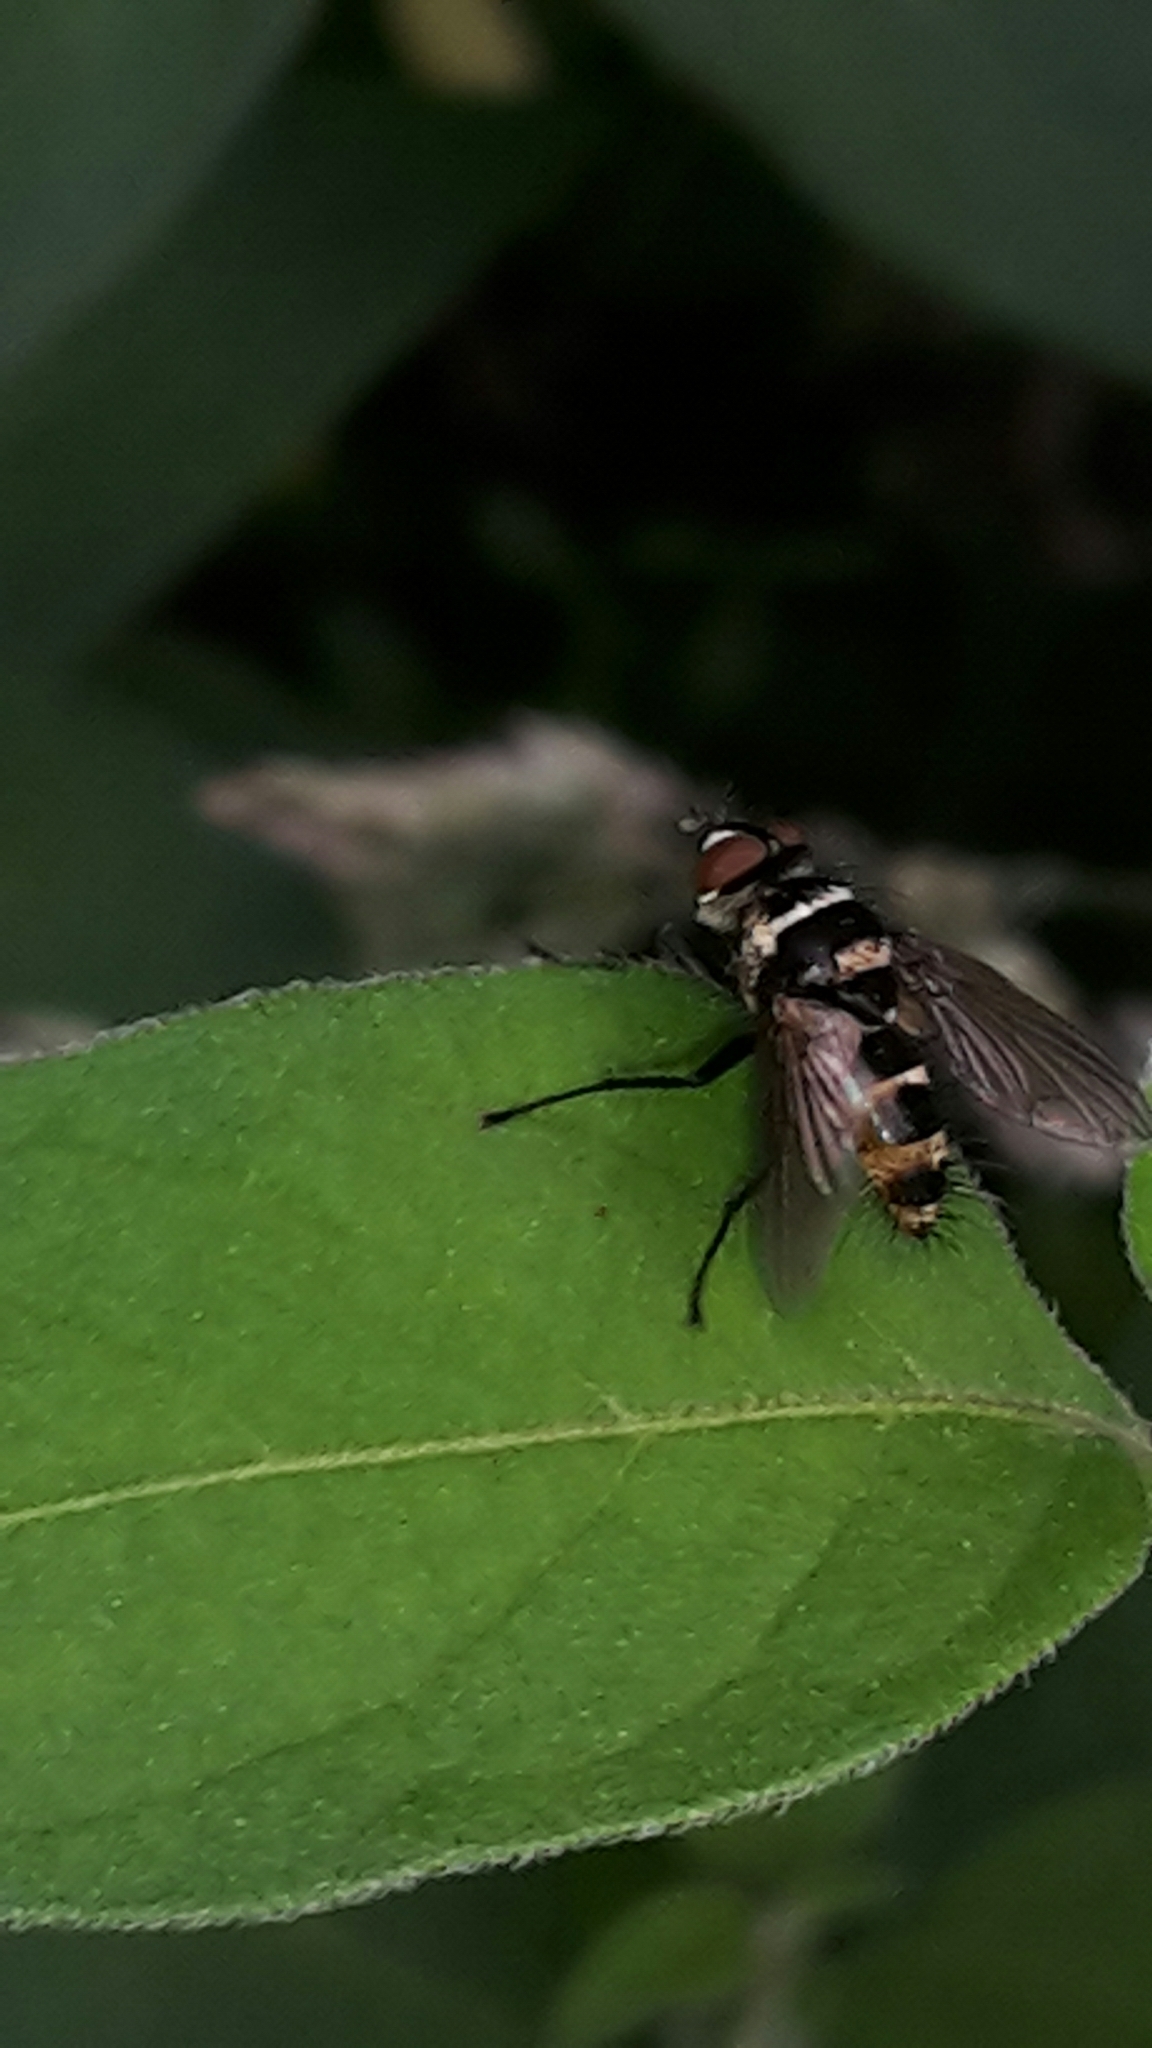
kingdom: Animalia
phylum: Arthropoda
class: Insecta
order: Diptera
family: Tachinidae
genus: Trigonospila
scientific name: Trigonospila brevifacies
